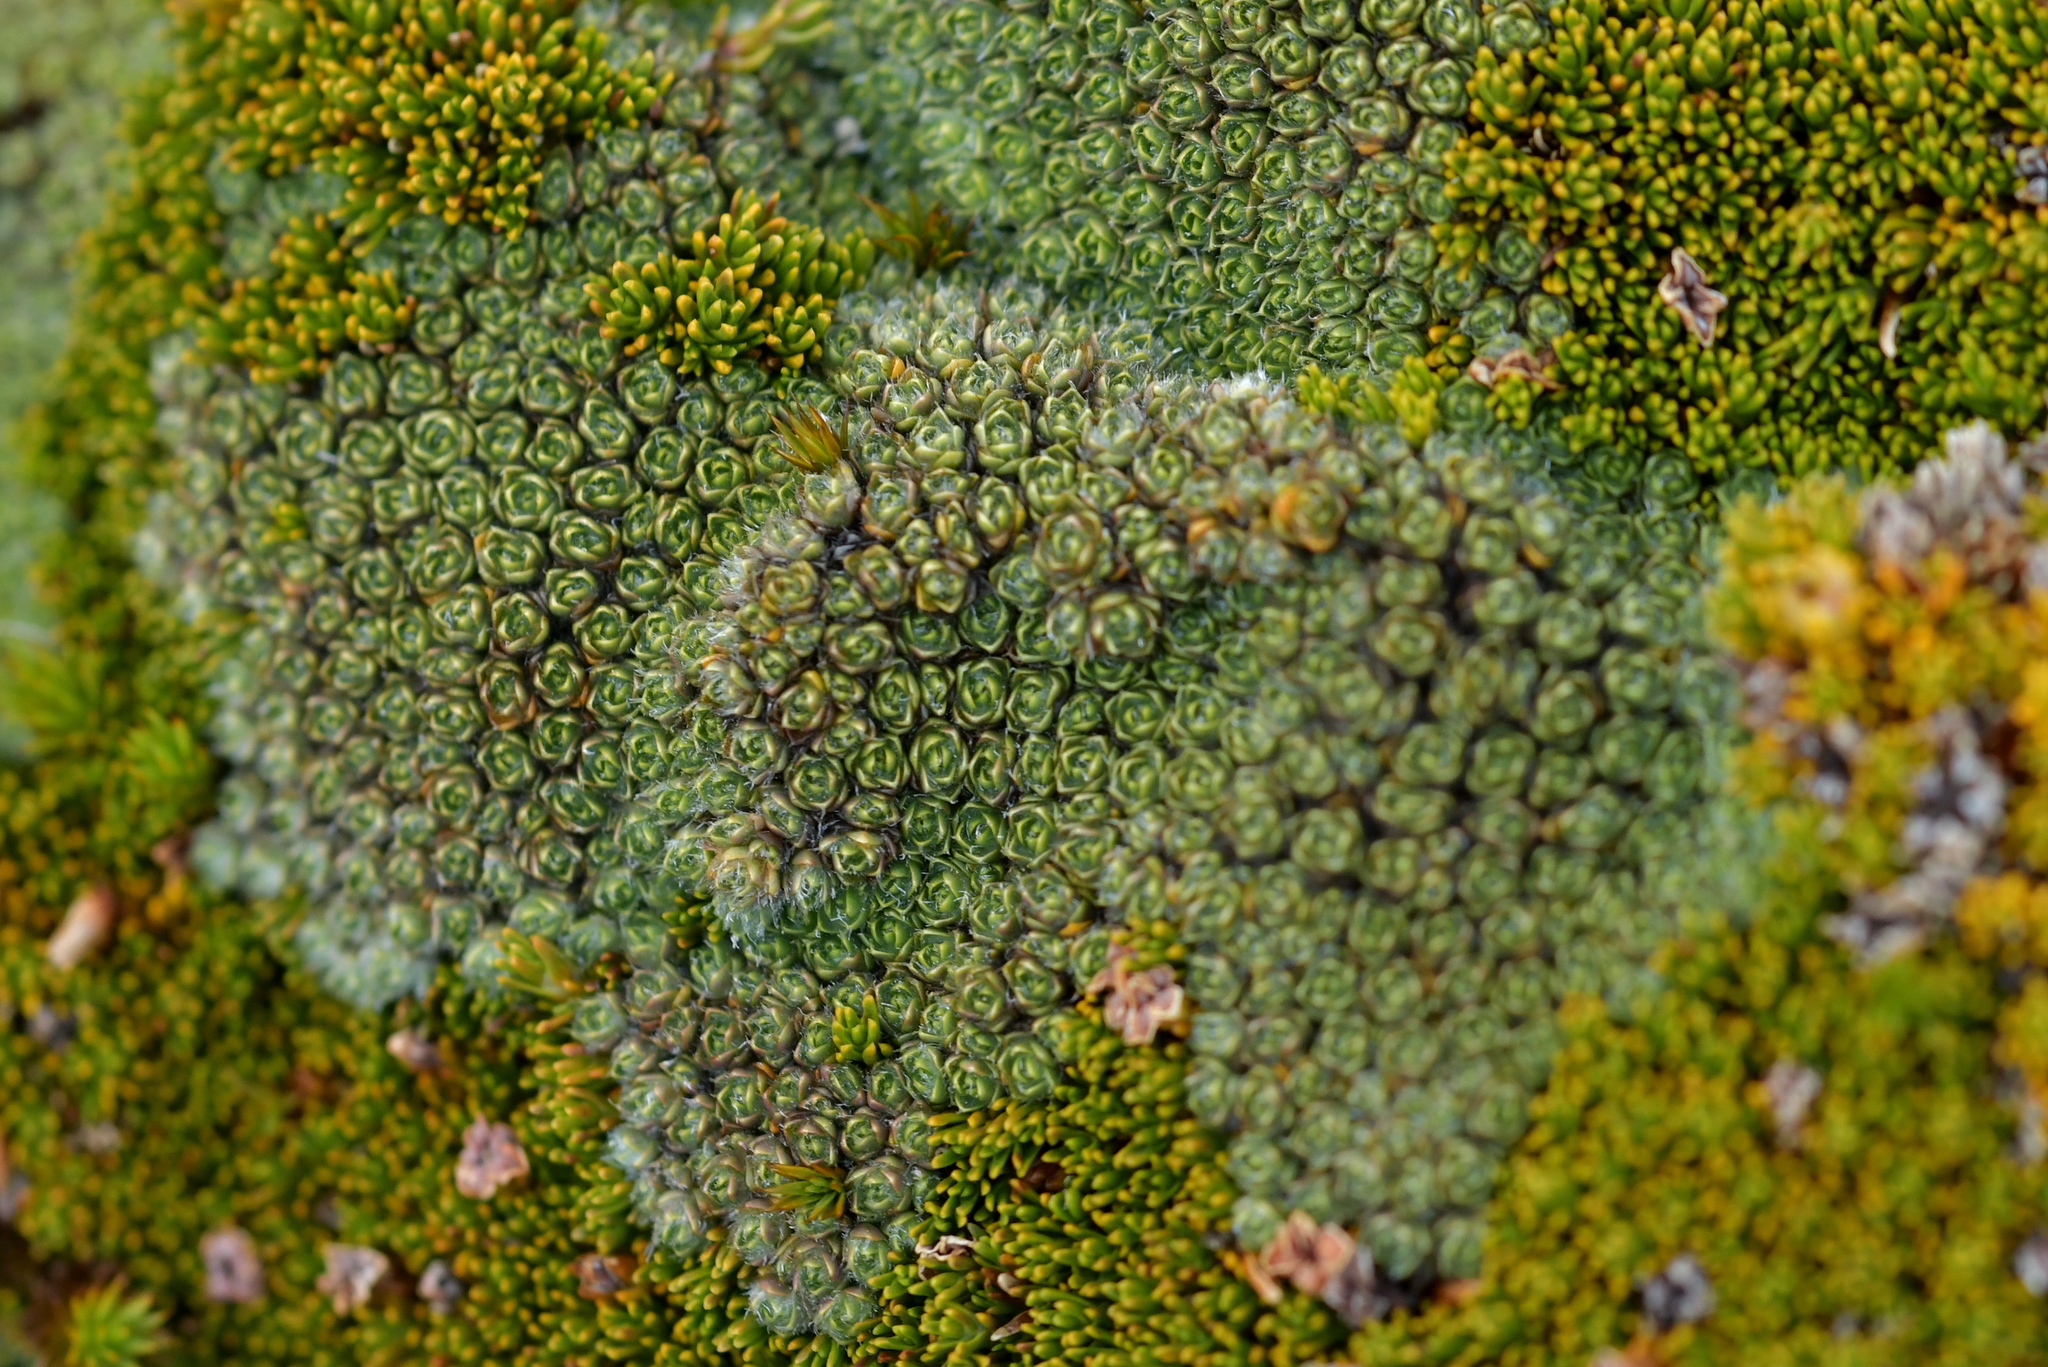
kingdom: Plantae
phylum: Tracheophyta
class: Magnoliopsida
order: Lamiales
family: Plantaginaceae
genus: Veronica
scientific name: Veronica thomsonii
